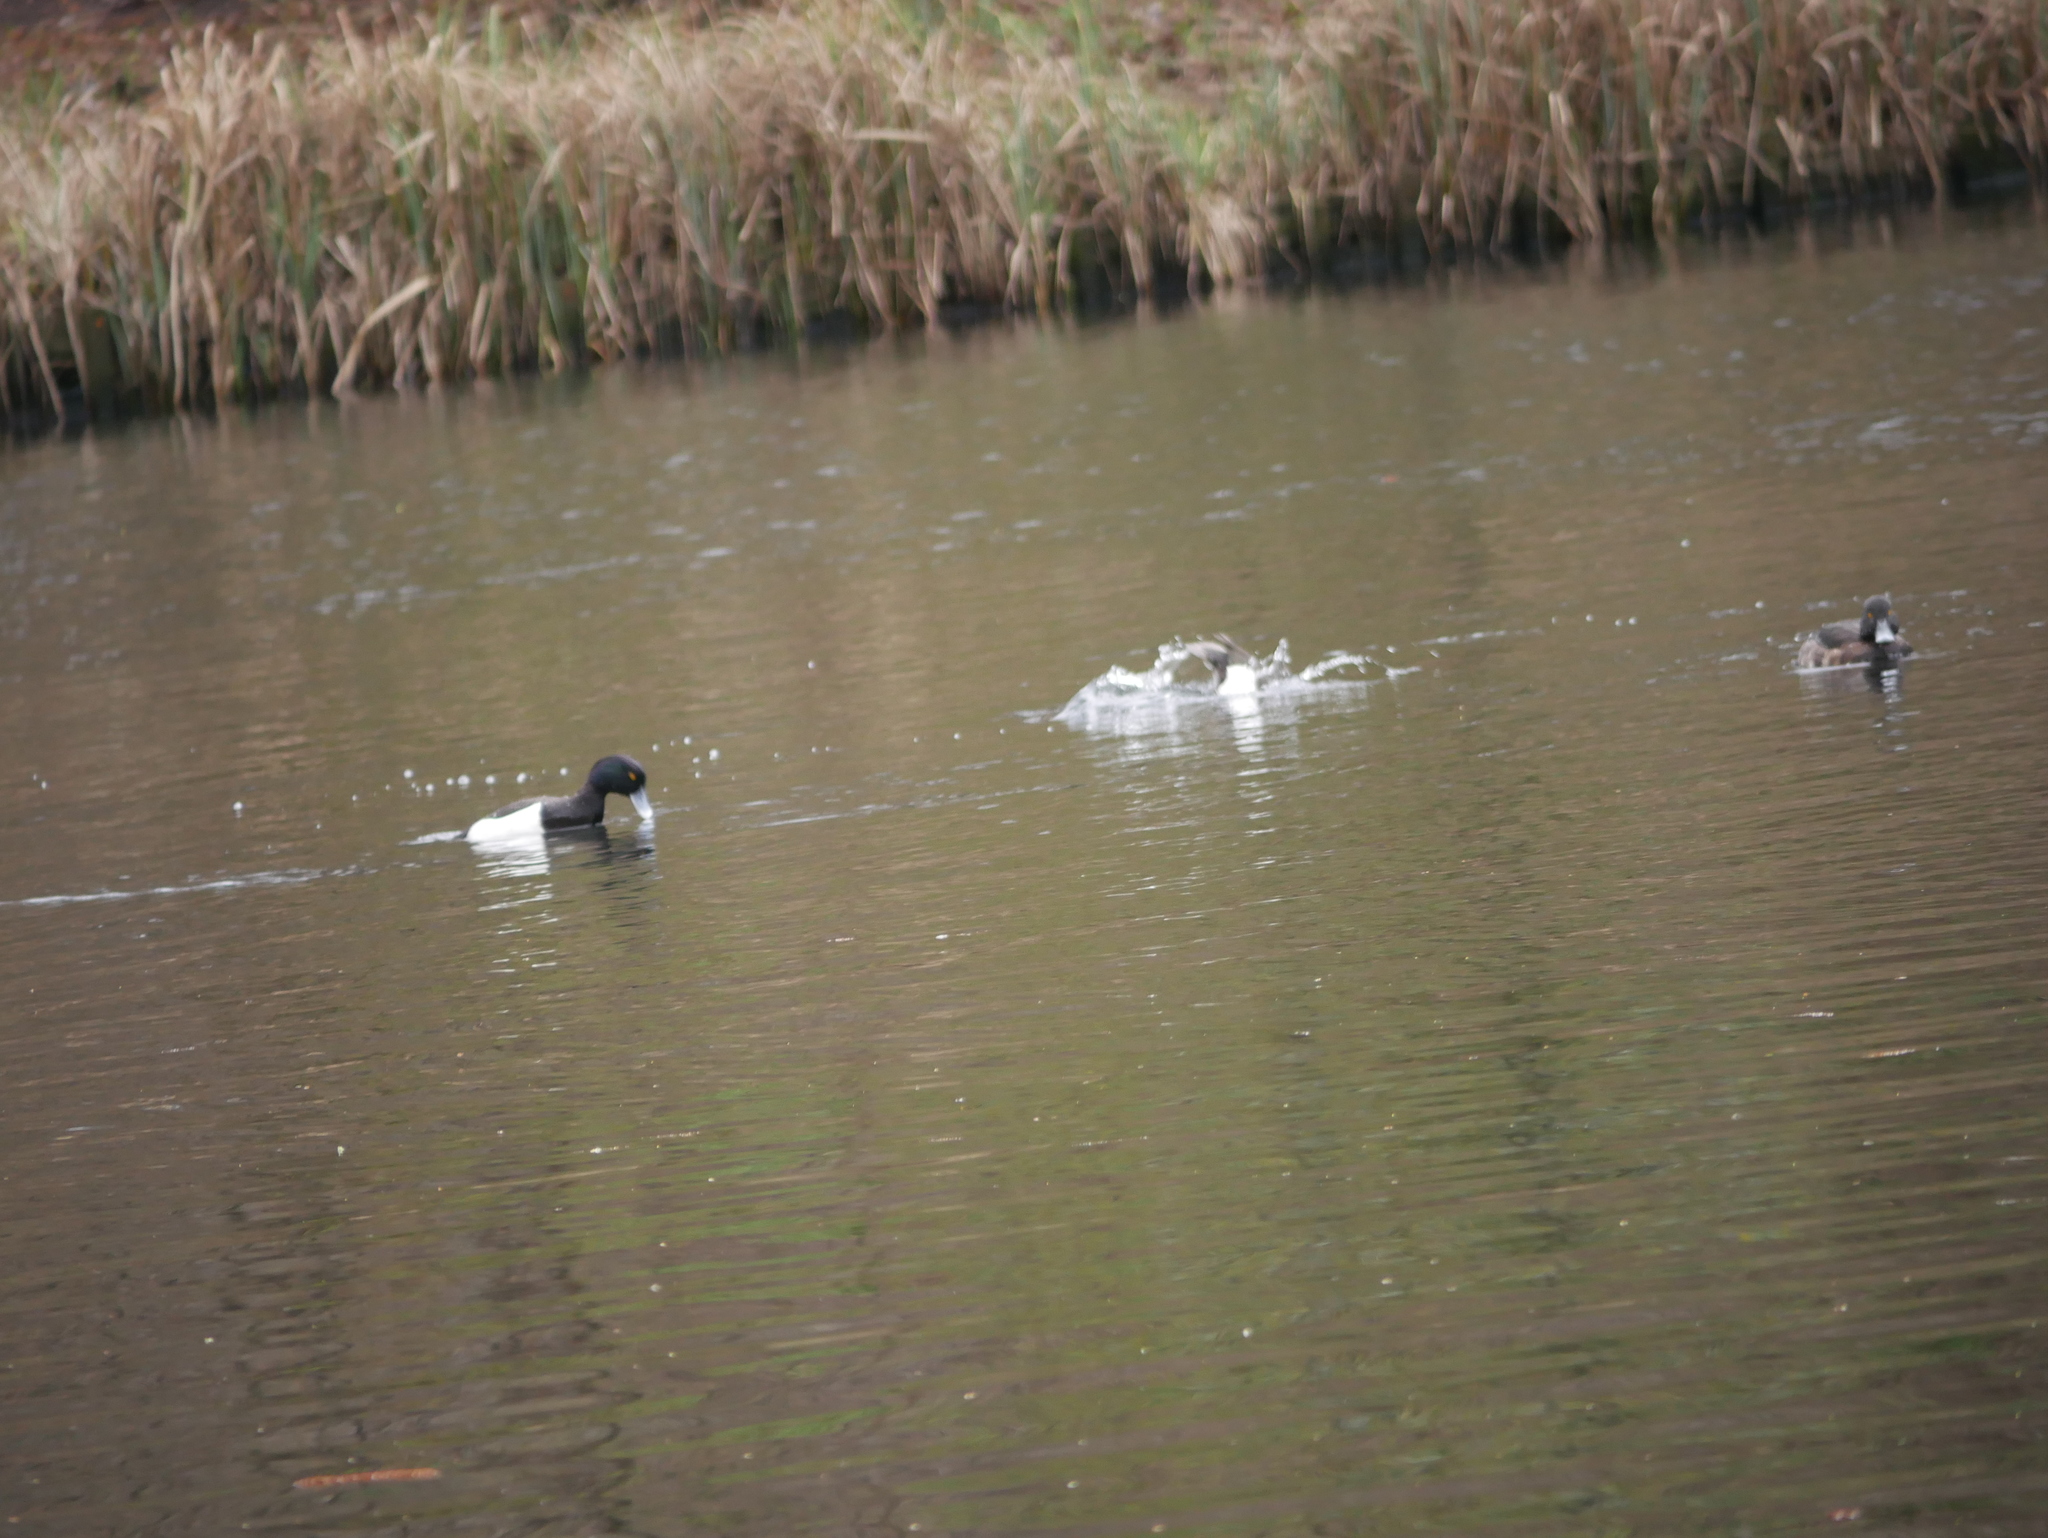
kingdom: Animalia
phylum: Chordata
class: Aves
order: Anseriformes
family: Anatidae
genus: Aythya
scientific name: Aythya fuligula
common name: Tufted duck
